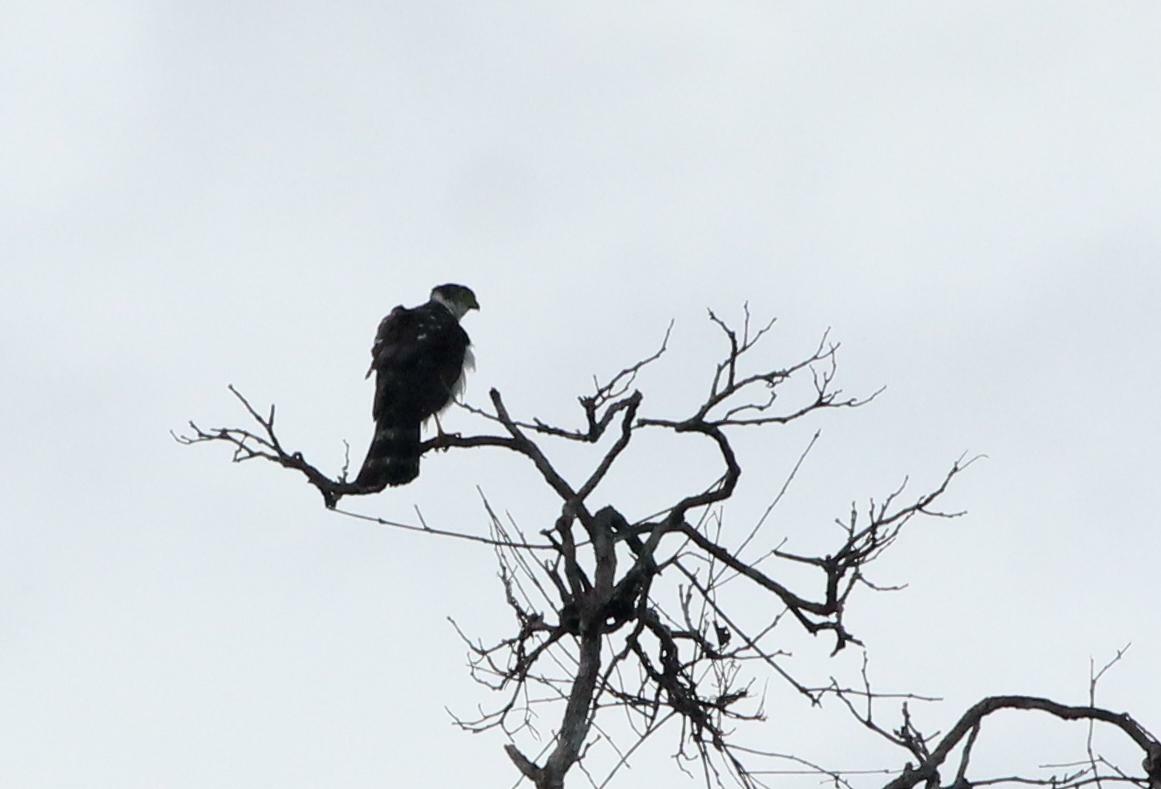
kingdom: Animalia
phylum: Chordata
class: Aves
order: Accipitriformes
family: Accipitridae
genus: Accipiter
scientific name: Accipiter bicolor
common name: Bicolored hawk
